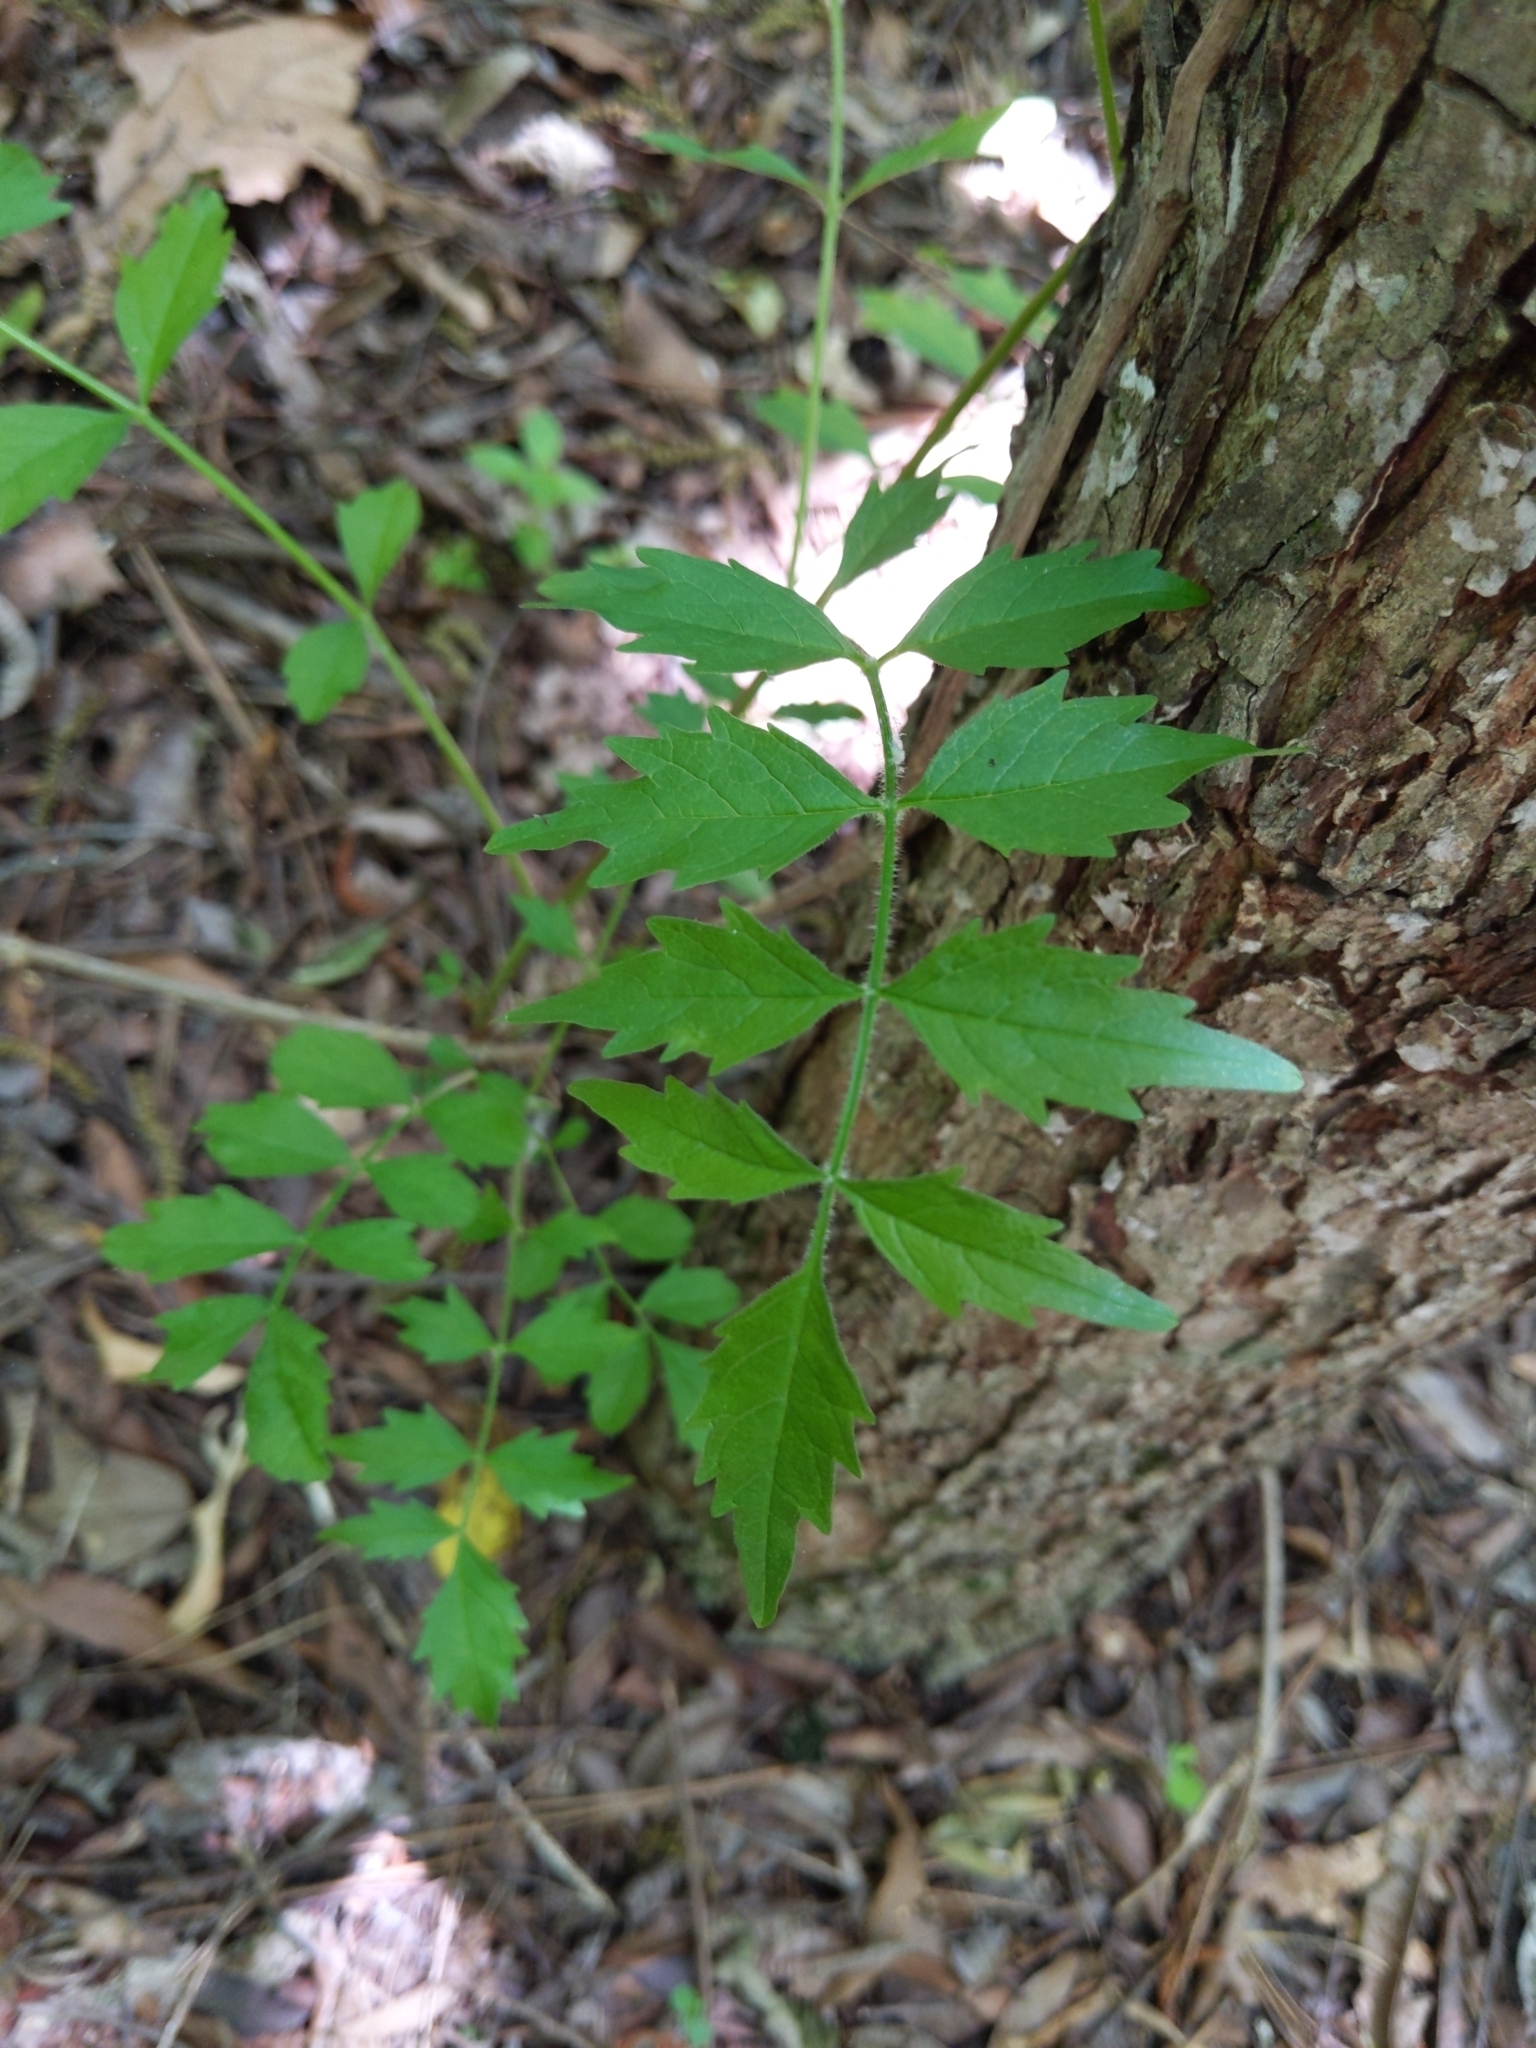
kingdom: Plantae
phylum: Tracheophyta
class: Magnoliopsida
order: Lamiales
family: Bignoniaceae
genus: Campsis
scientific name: Campsis radicans
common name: Trumpet-creeper
